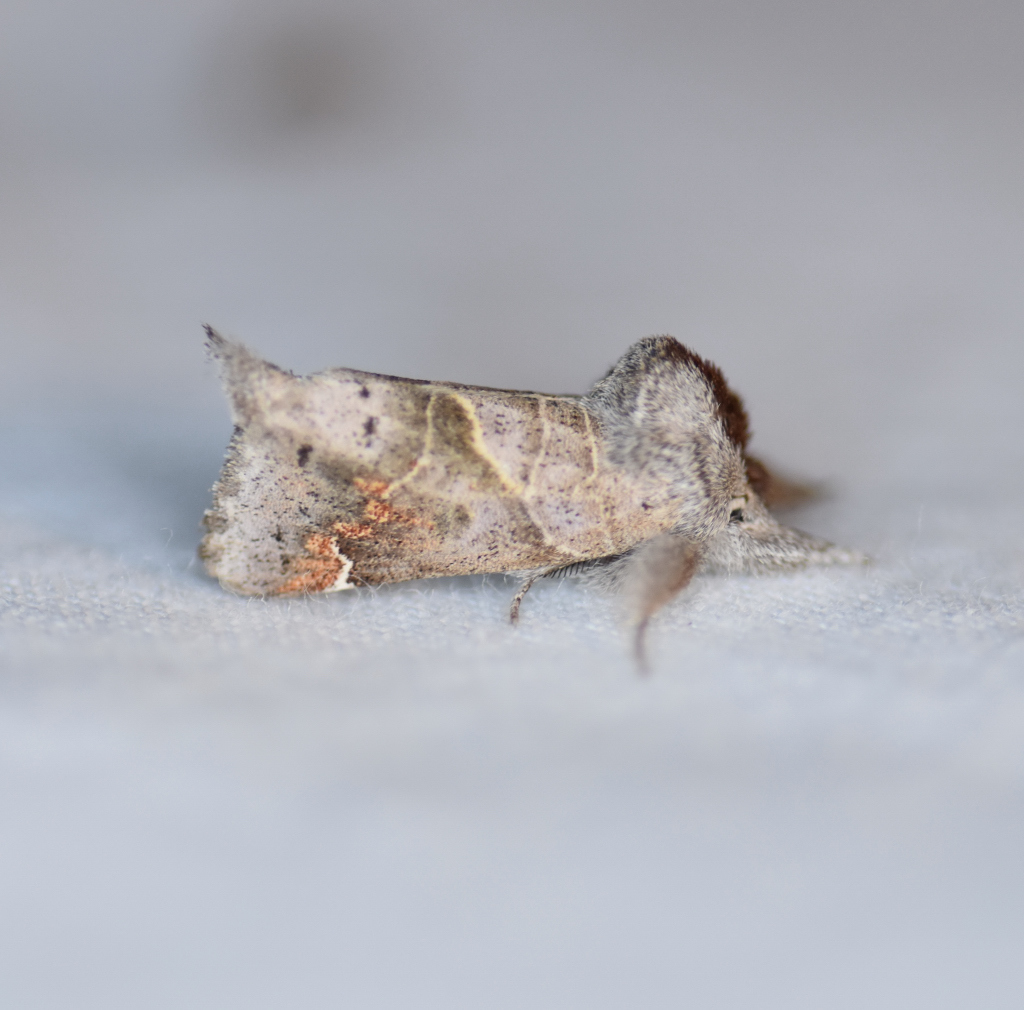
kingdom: Animalia
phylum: Arthropoda
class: Insecta
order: Lepidoptera
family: Notodontidae
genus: Clostera
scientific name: Clostera apicalis
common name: Apical prominent
